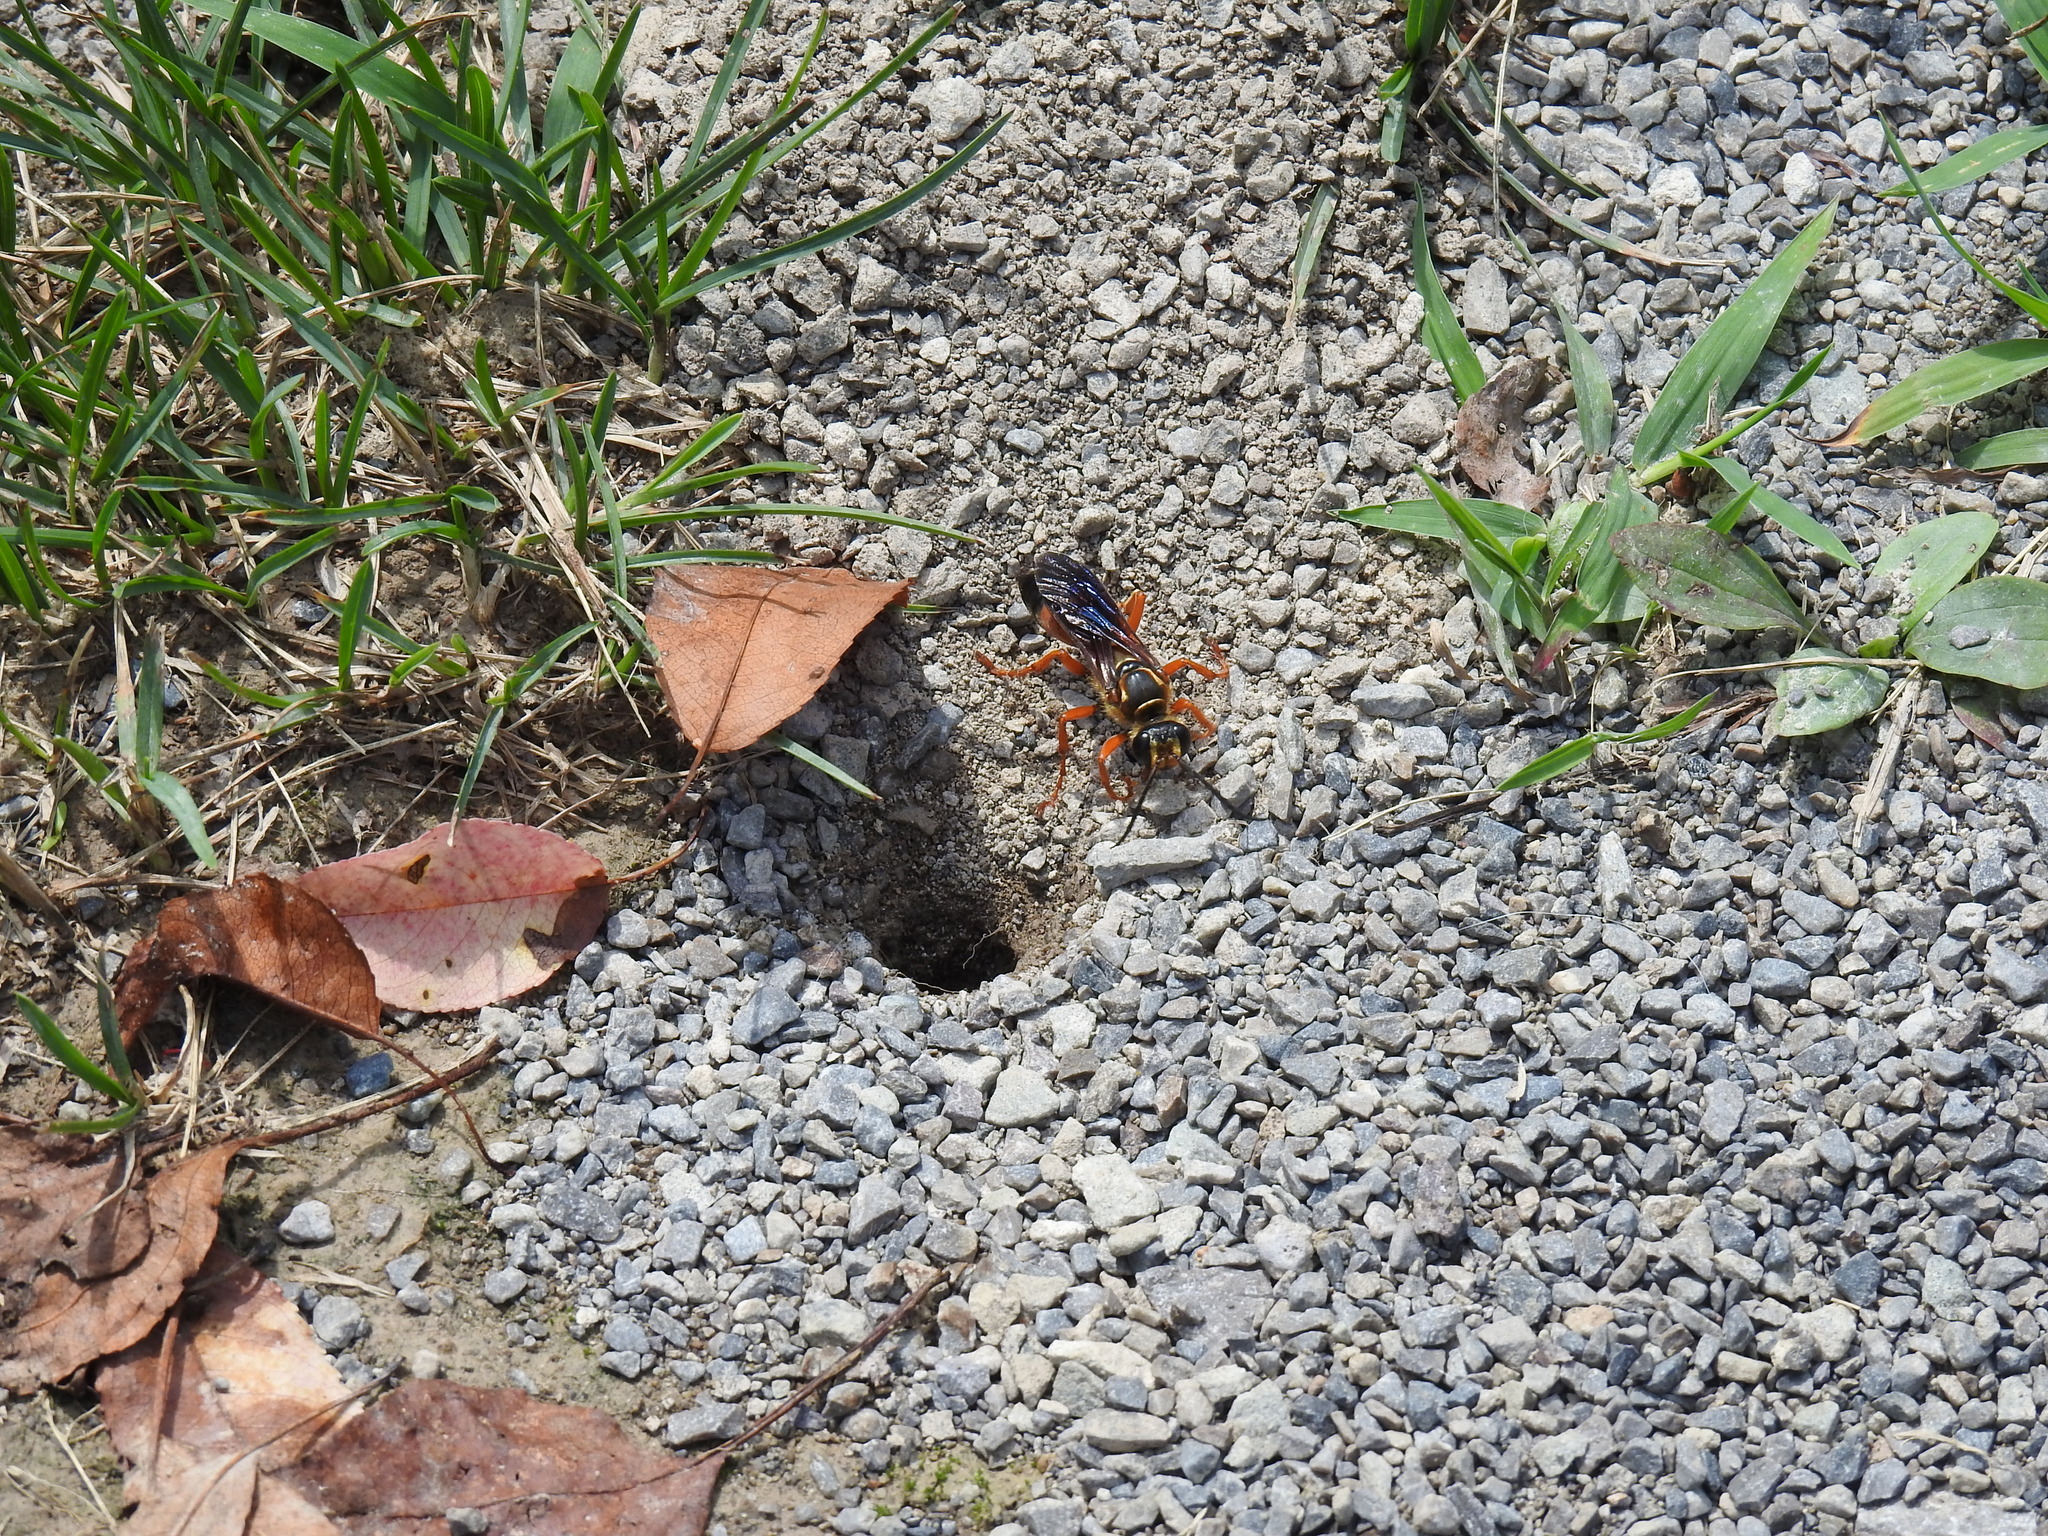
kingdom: Animalia
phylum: Arthropoda
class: Insecta
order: Hymenoptera
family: Sphecidae
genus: Sphex
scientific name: Sphex ichneumoneus
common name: Great golden digger wasp
